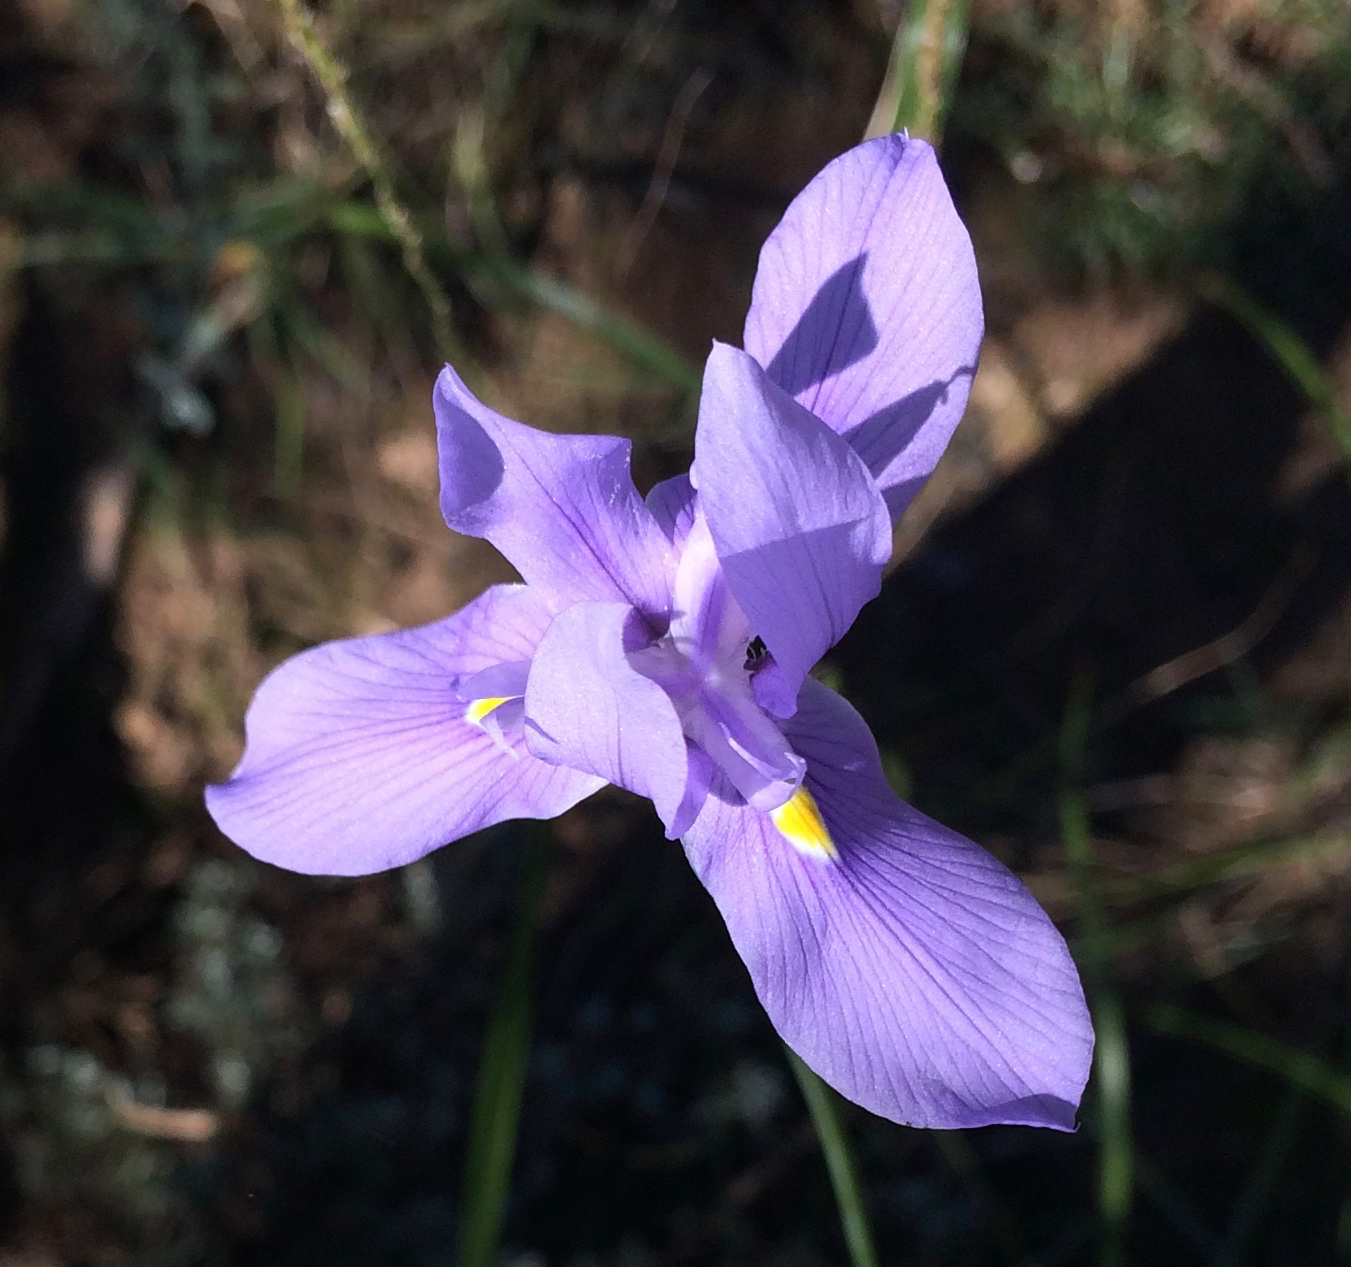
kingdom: Plantae
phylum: Tracheophyta
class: Liliopsida
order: Asparagales
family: Iridaceae
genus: Moraea
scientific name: Moraea polystachya
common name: Blue-tulip
